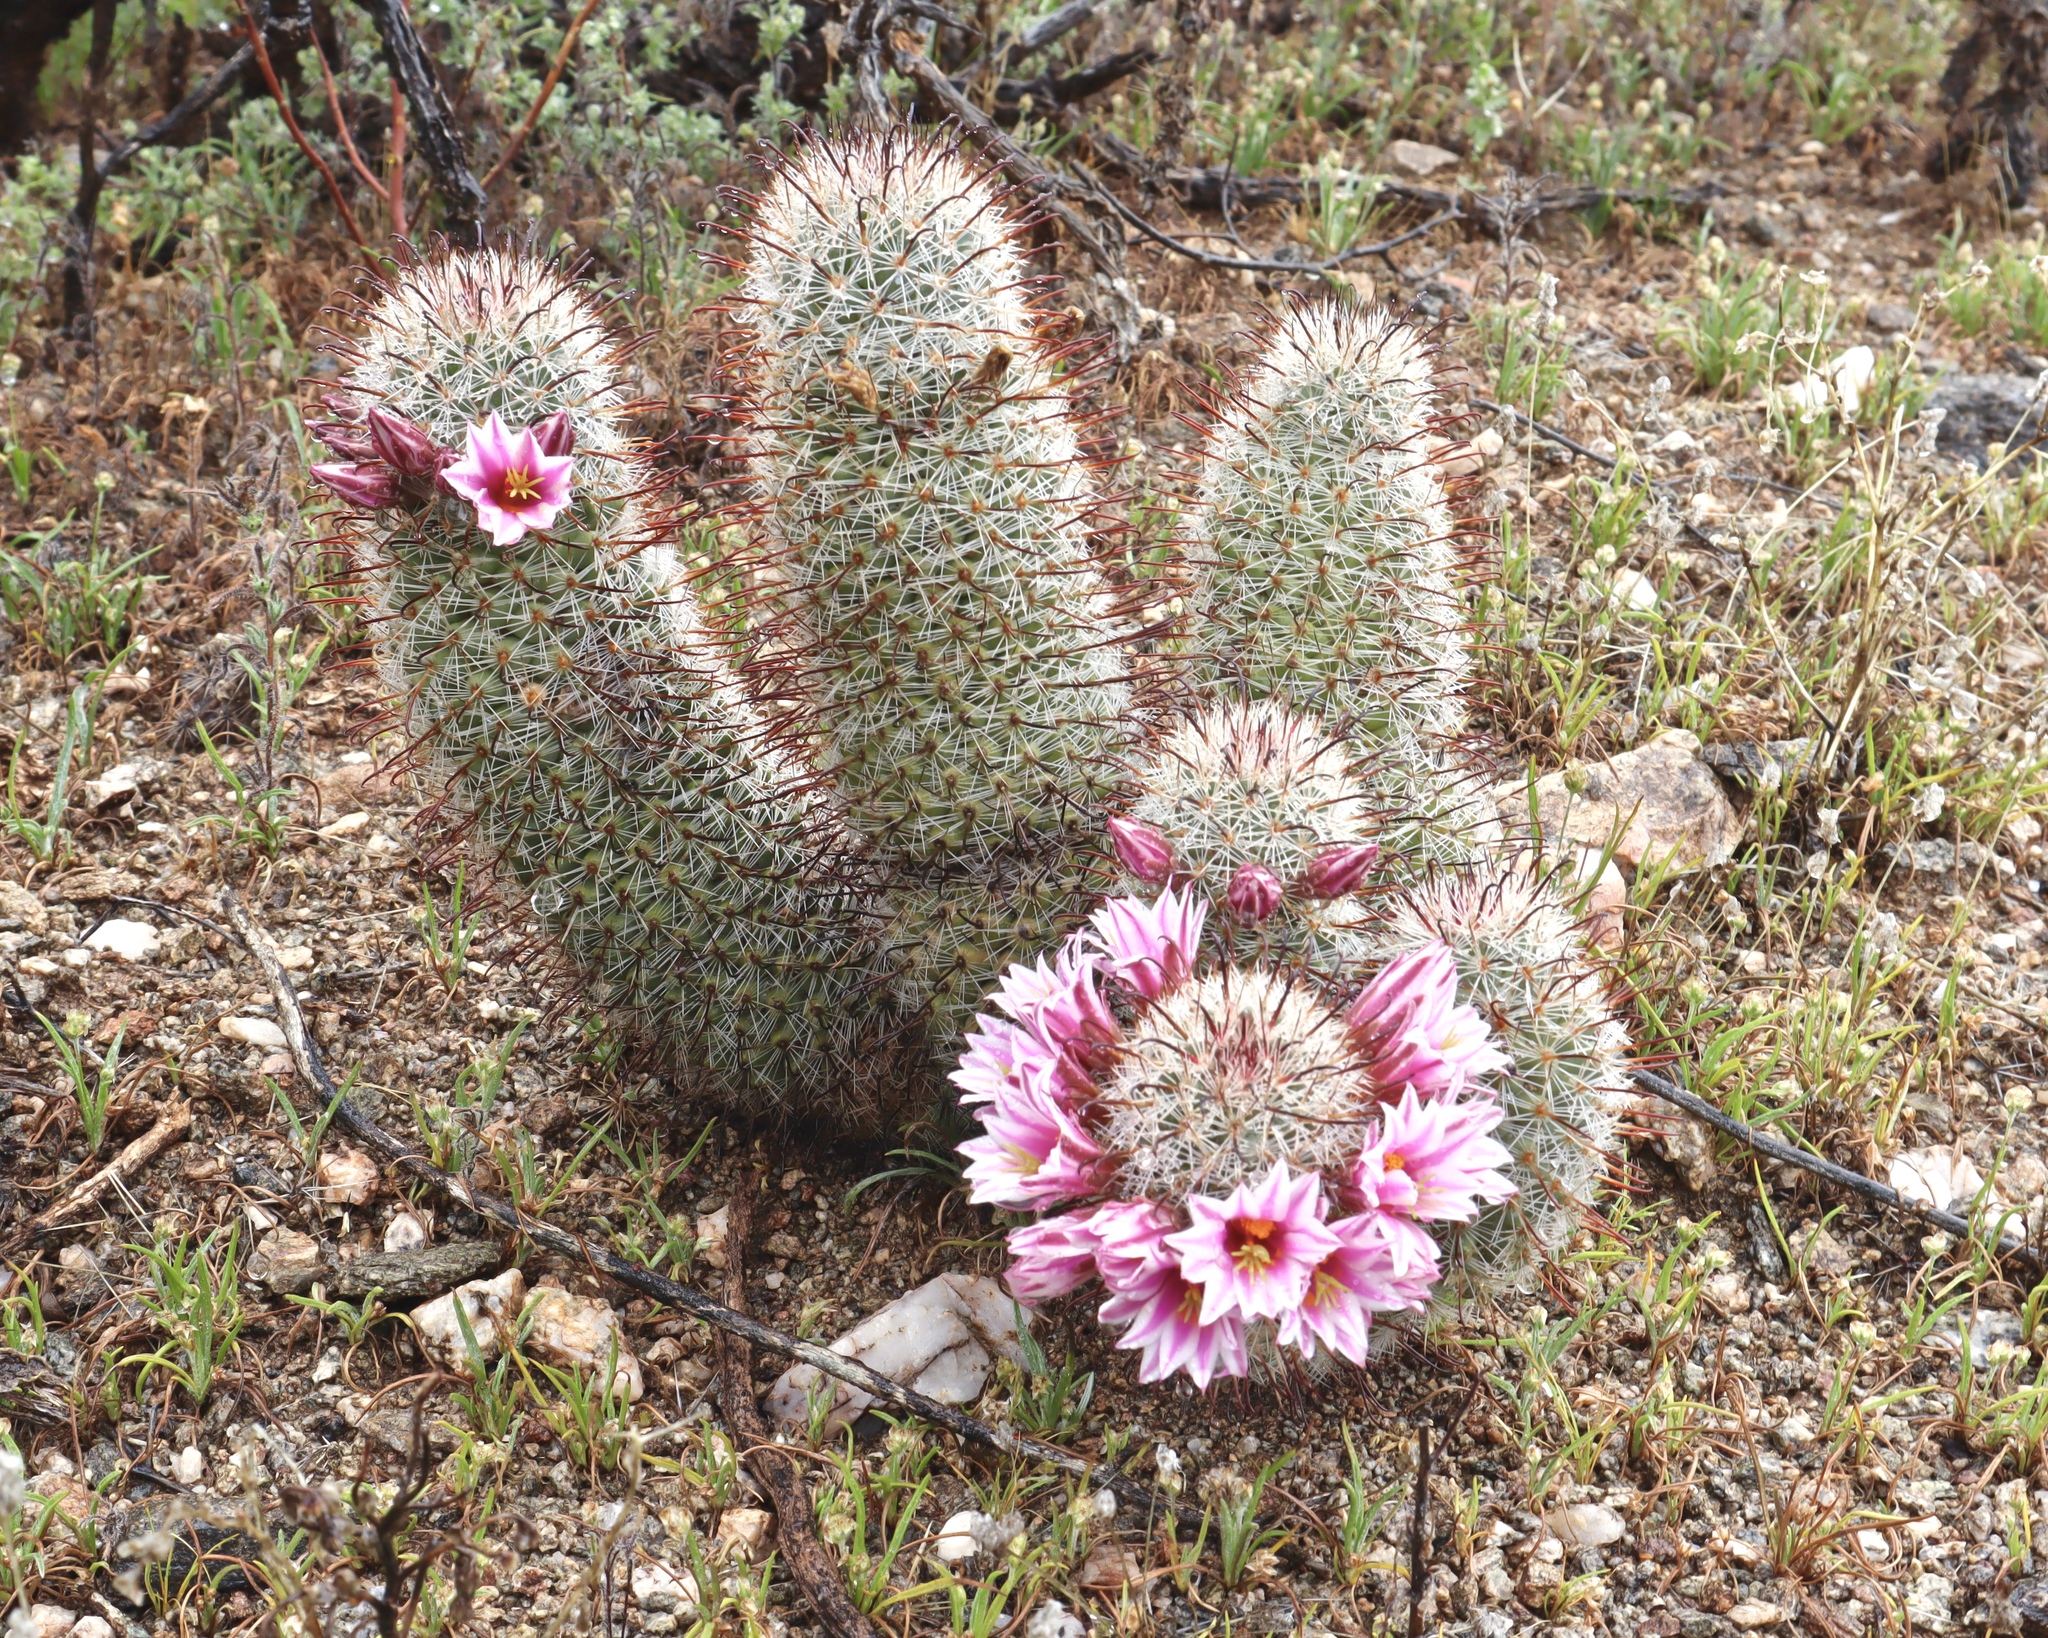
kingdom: Plantae
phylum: Tracheophyta
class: Magnoliopsida
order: Caryophyllales
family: Cactaceae
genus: Cochemiea
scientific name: Cochemiea grahamii
